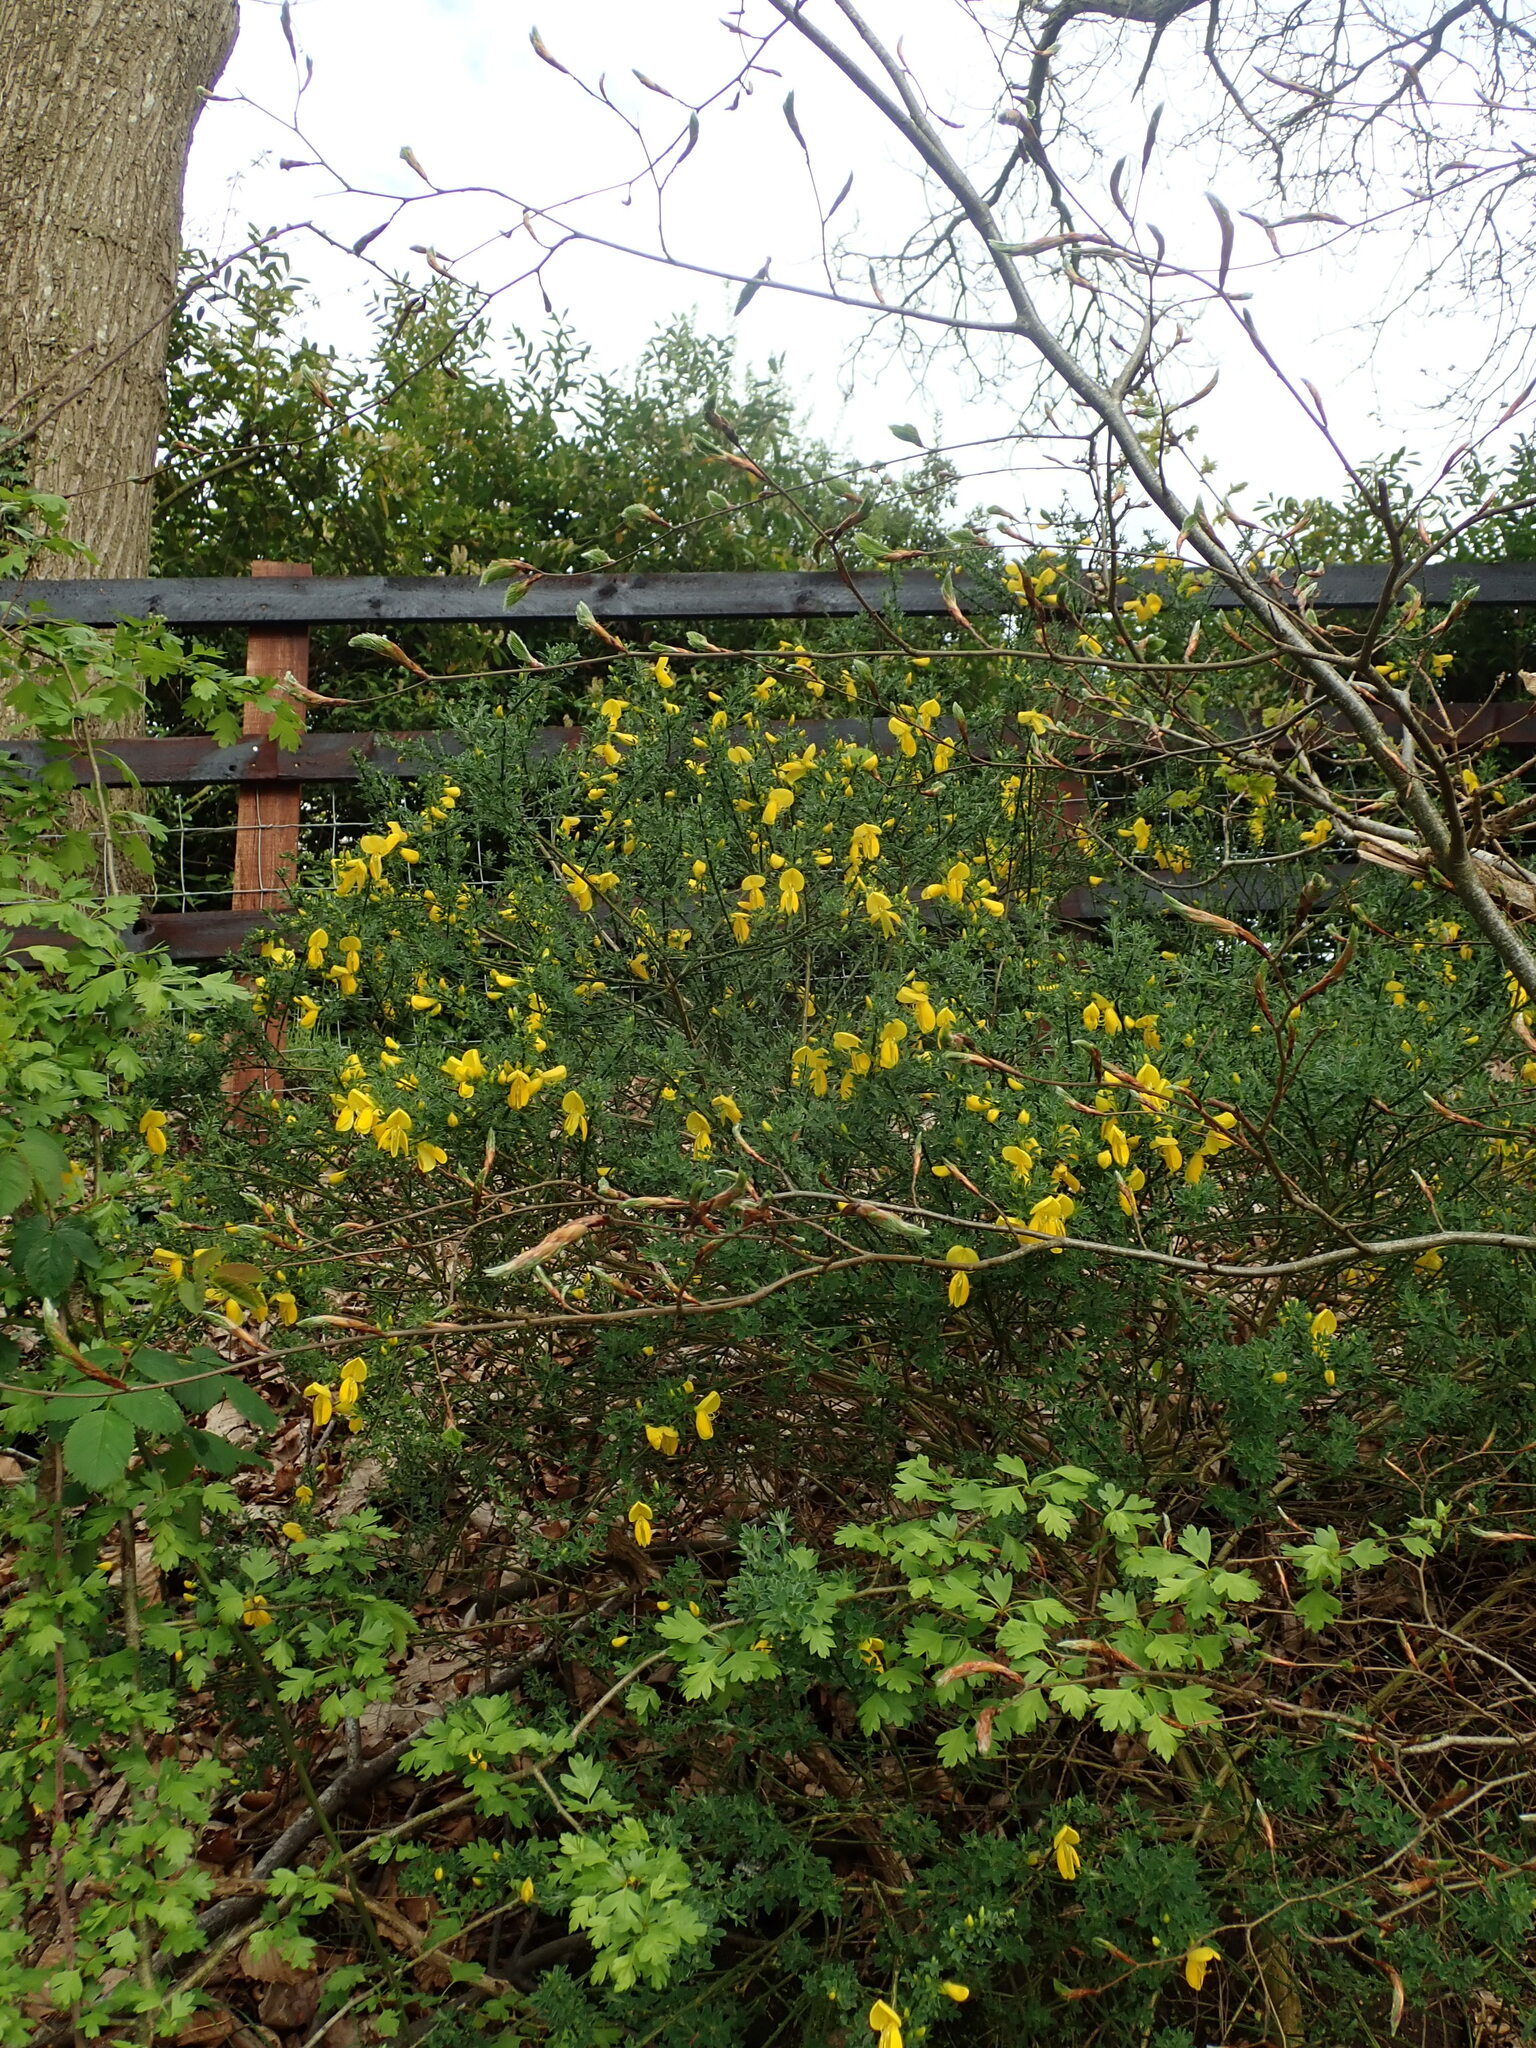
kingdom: Plantae
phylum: Tracheophyta
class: Magnoliopsida
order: Fabales
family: Fabaceae
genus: Cytisus
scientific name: Cytisus scoparius
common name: Scotch broom
